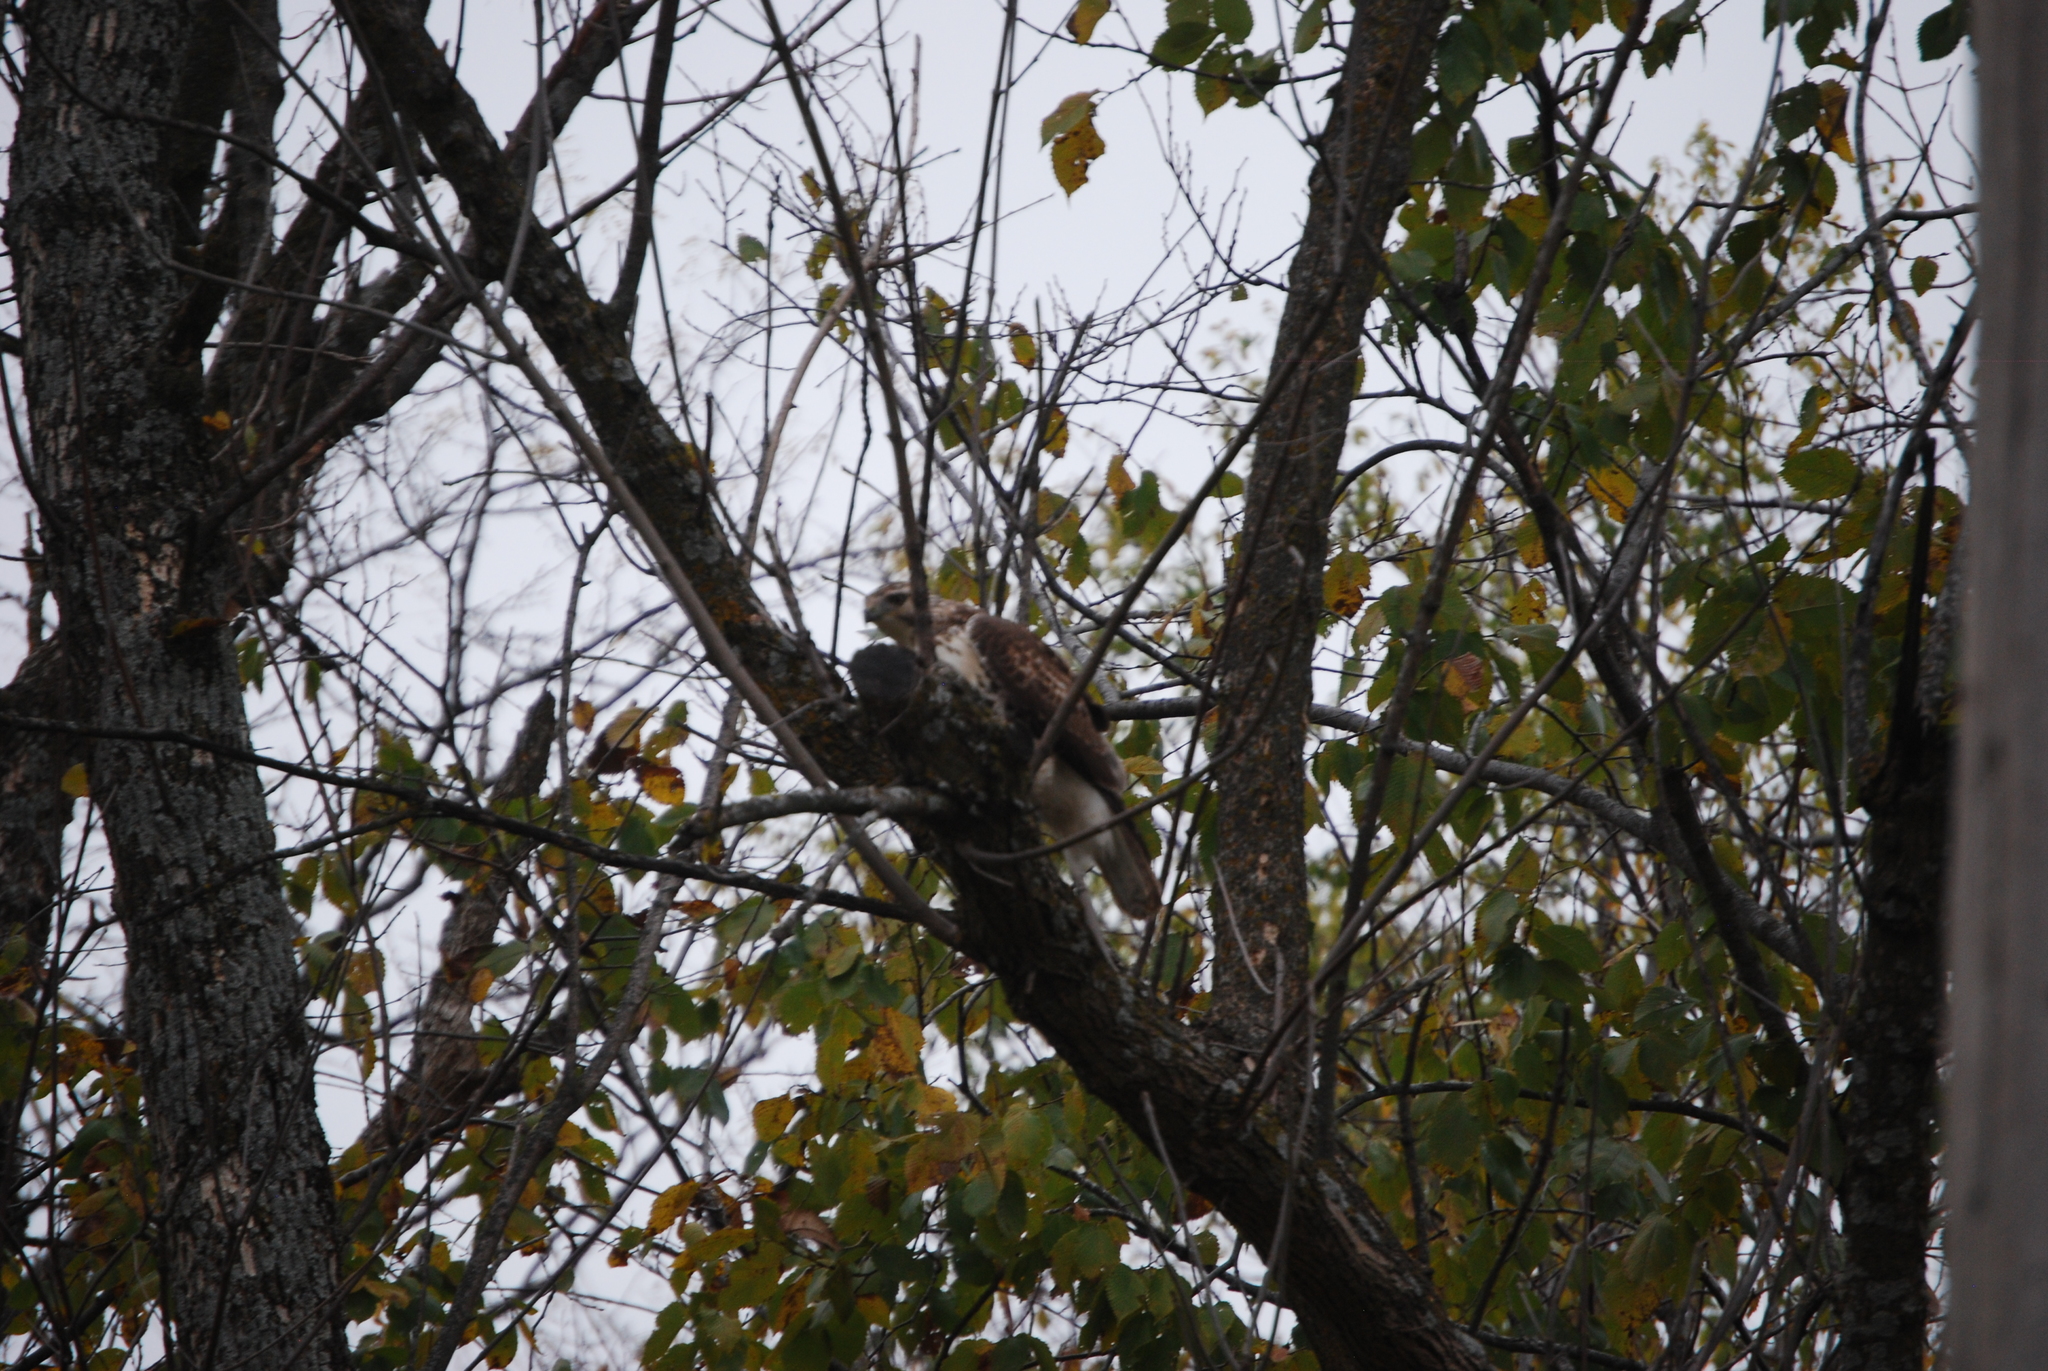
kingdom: Animalia
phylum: Chordata
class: Aves
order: Accipitriformes
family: Accipitridae
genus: Buteo
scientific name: Buteo jamaicensis
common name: Red-tailed hawk
